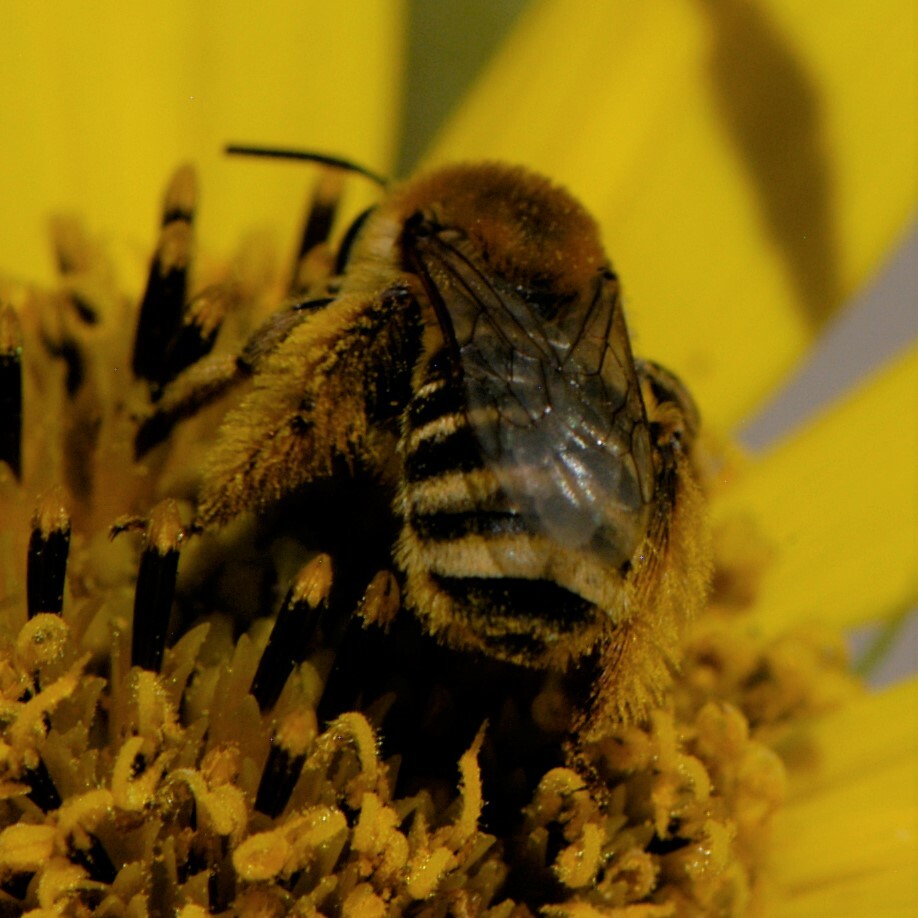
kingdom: Animalia
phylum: Arthropoda
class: Insecta
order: Hymenoptera
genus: Eumelissodes
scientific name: Eumelissodes
